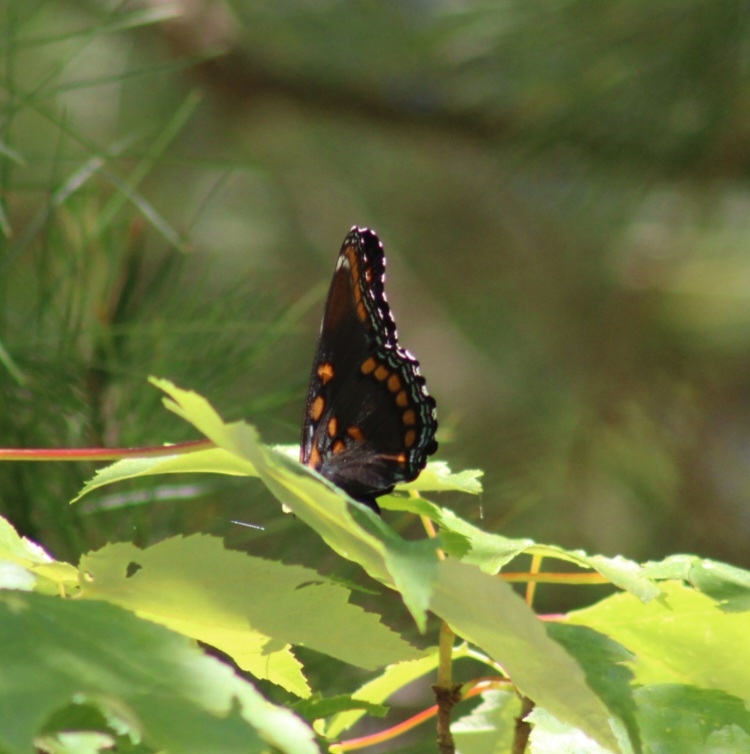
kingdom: Animalia
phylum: Arthropoda
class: Insecta
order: Lepidoptera
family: Nymphalidae
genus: Limenitis
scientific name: Limenitis astyanax
